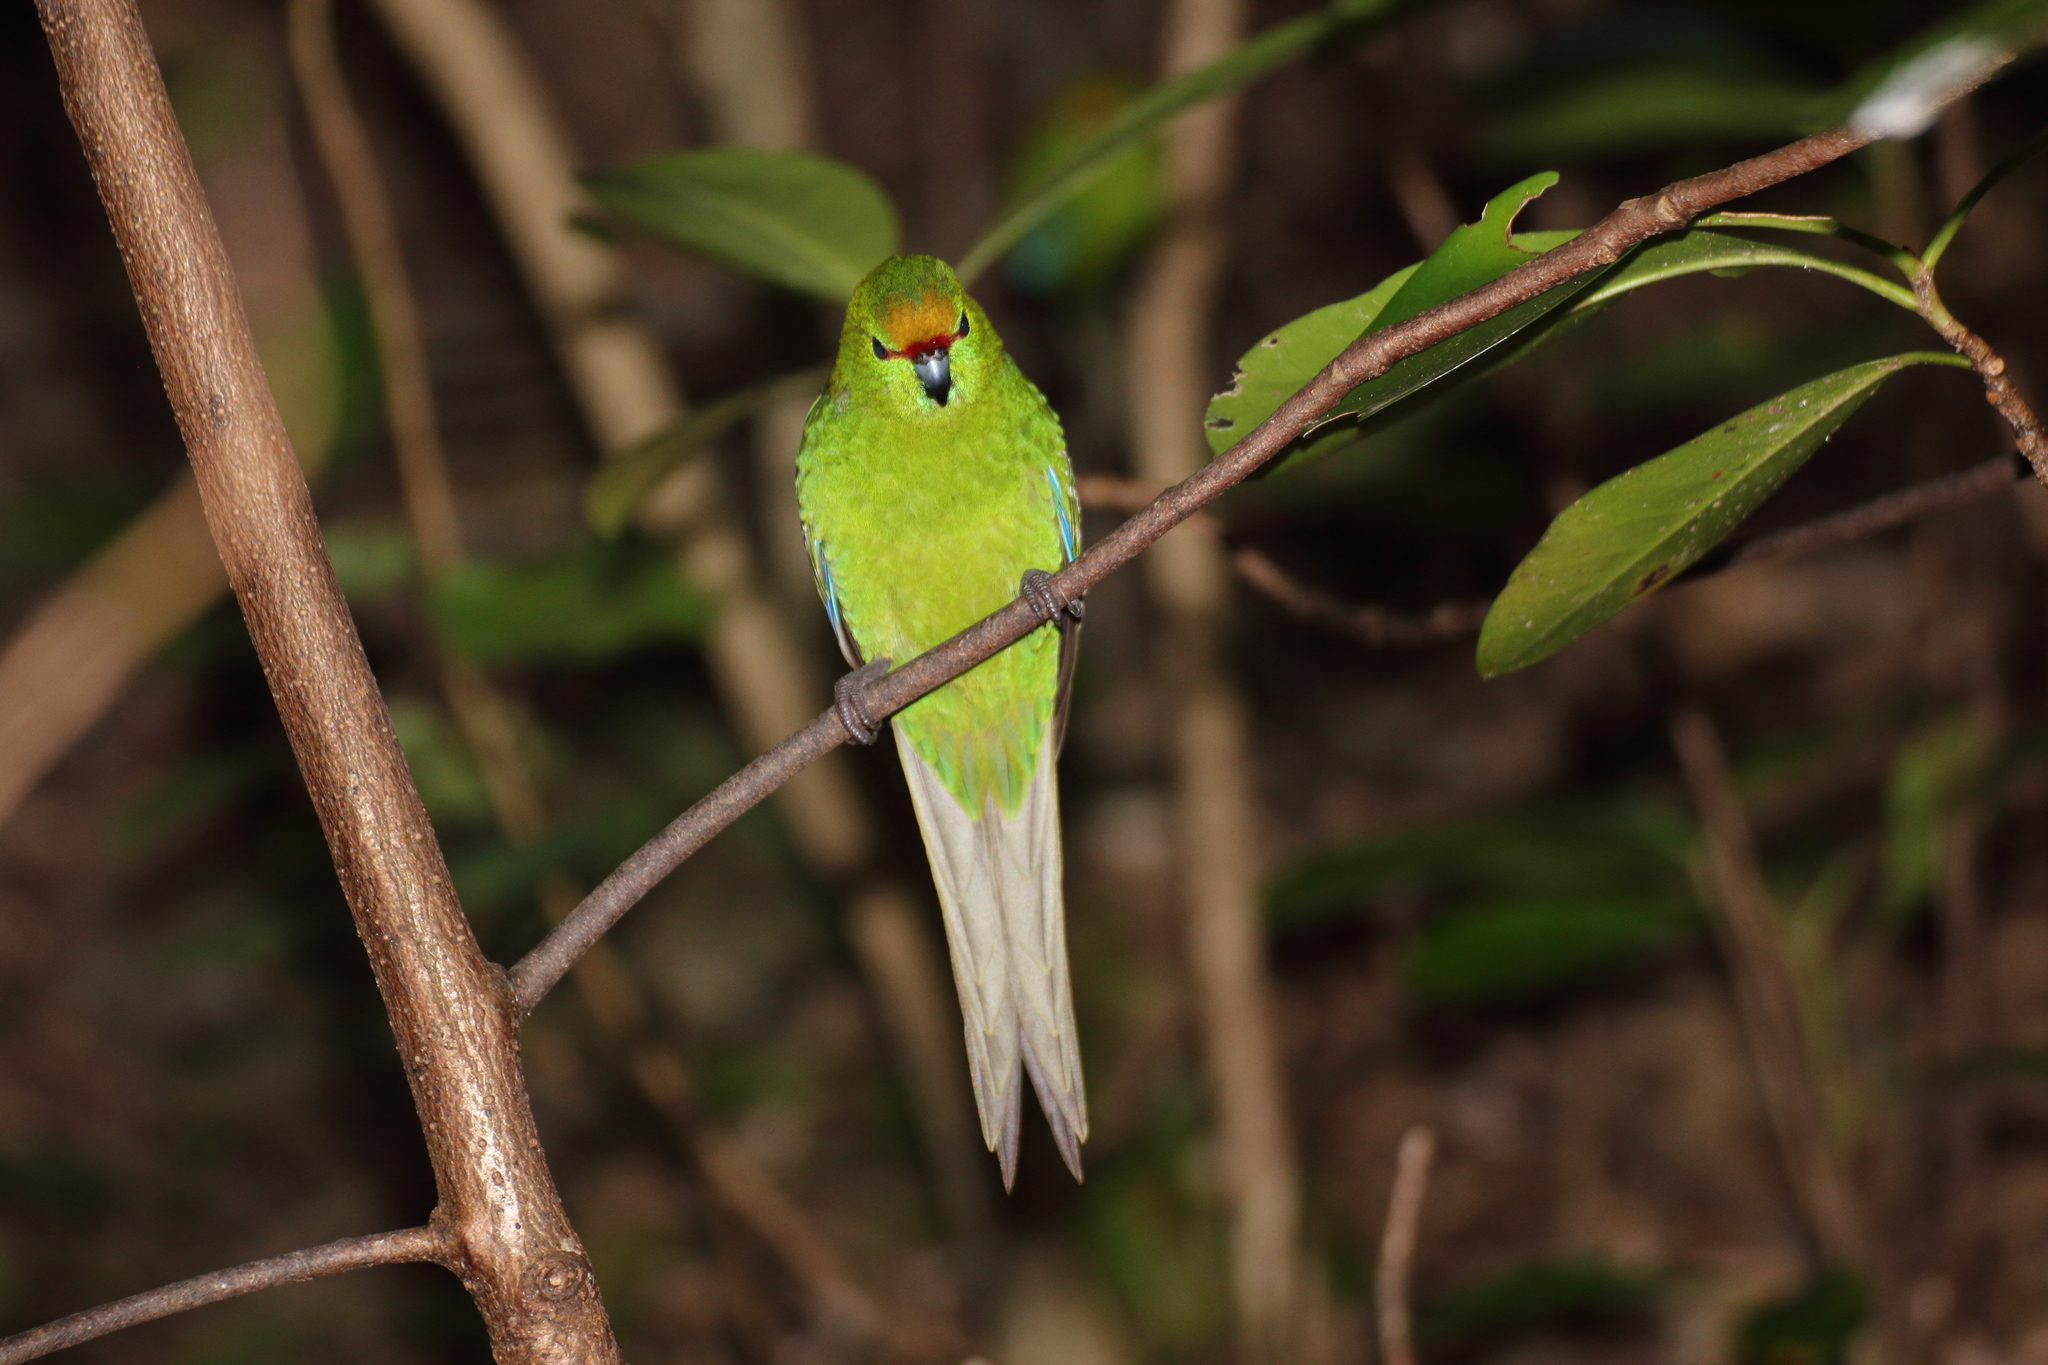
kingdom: Animalia
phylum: Chordata
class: Aves
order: Psittaciformes
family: Psittacidae
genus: Cyanoramphus
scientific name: Cyanoramphus auriceps
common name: Yellow-crowned parakeet
